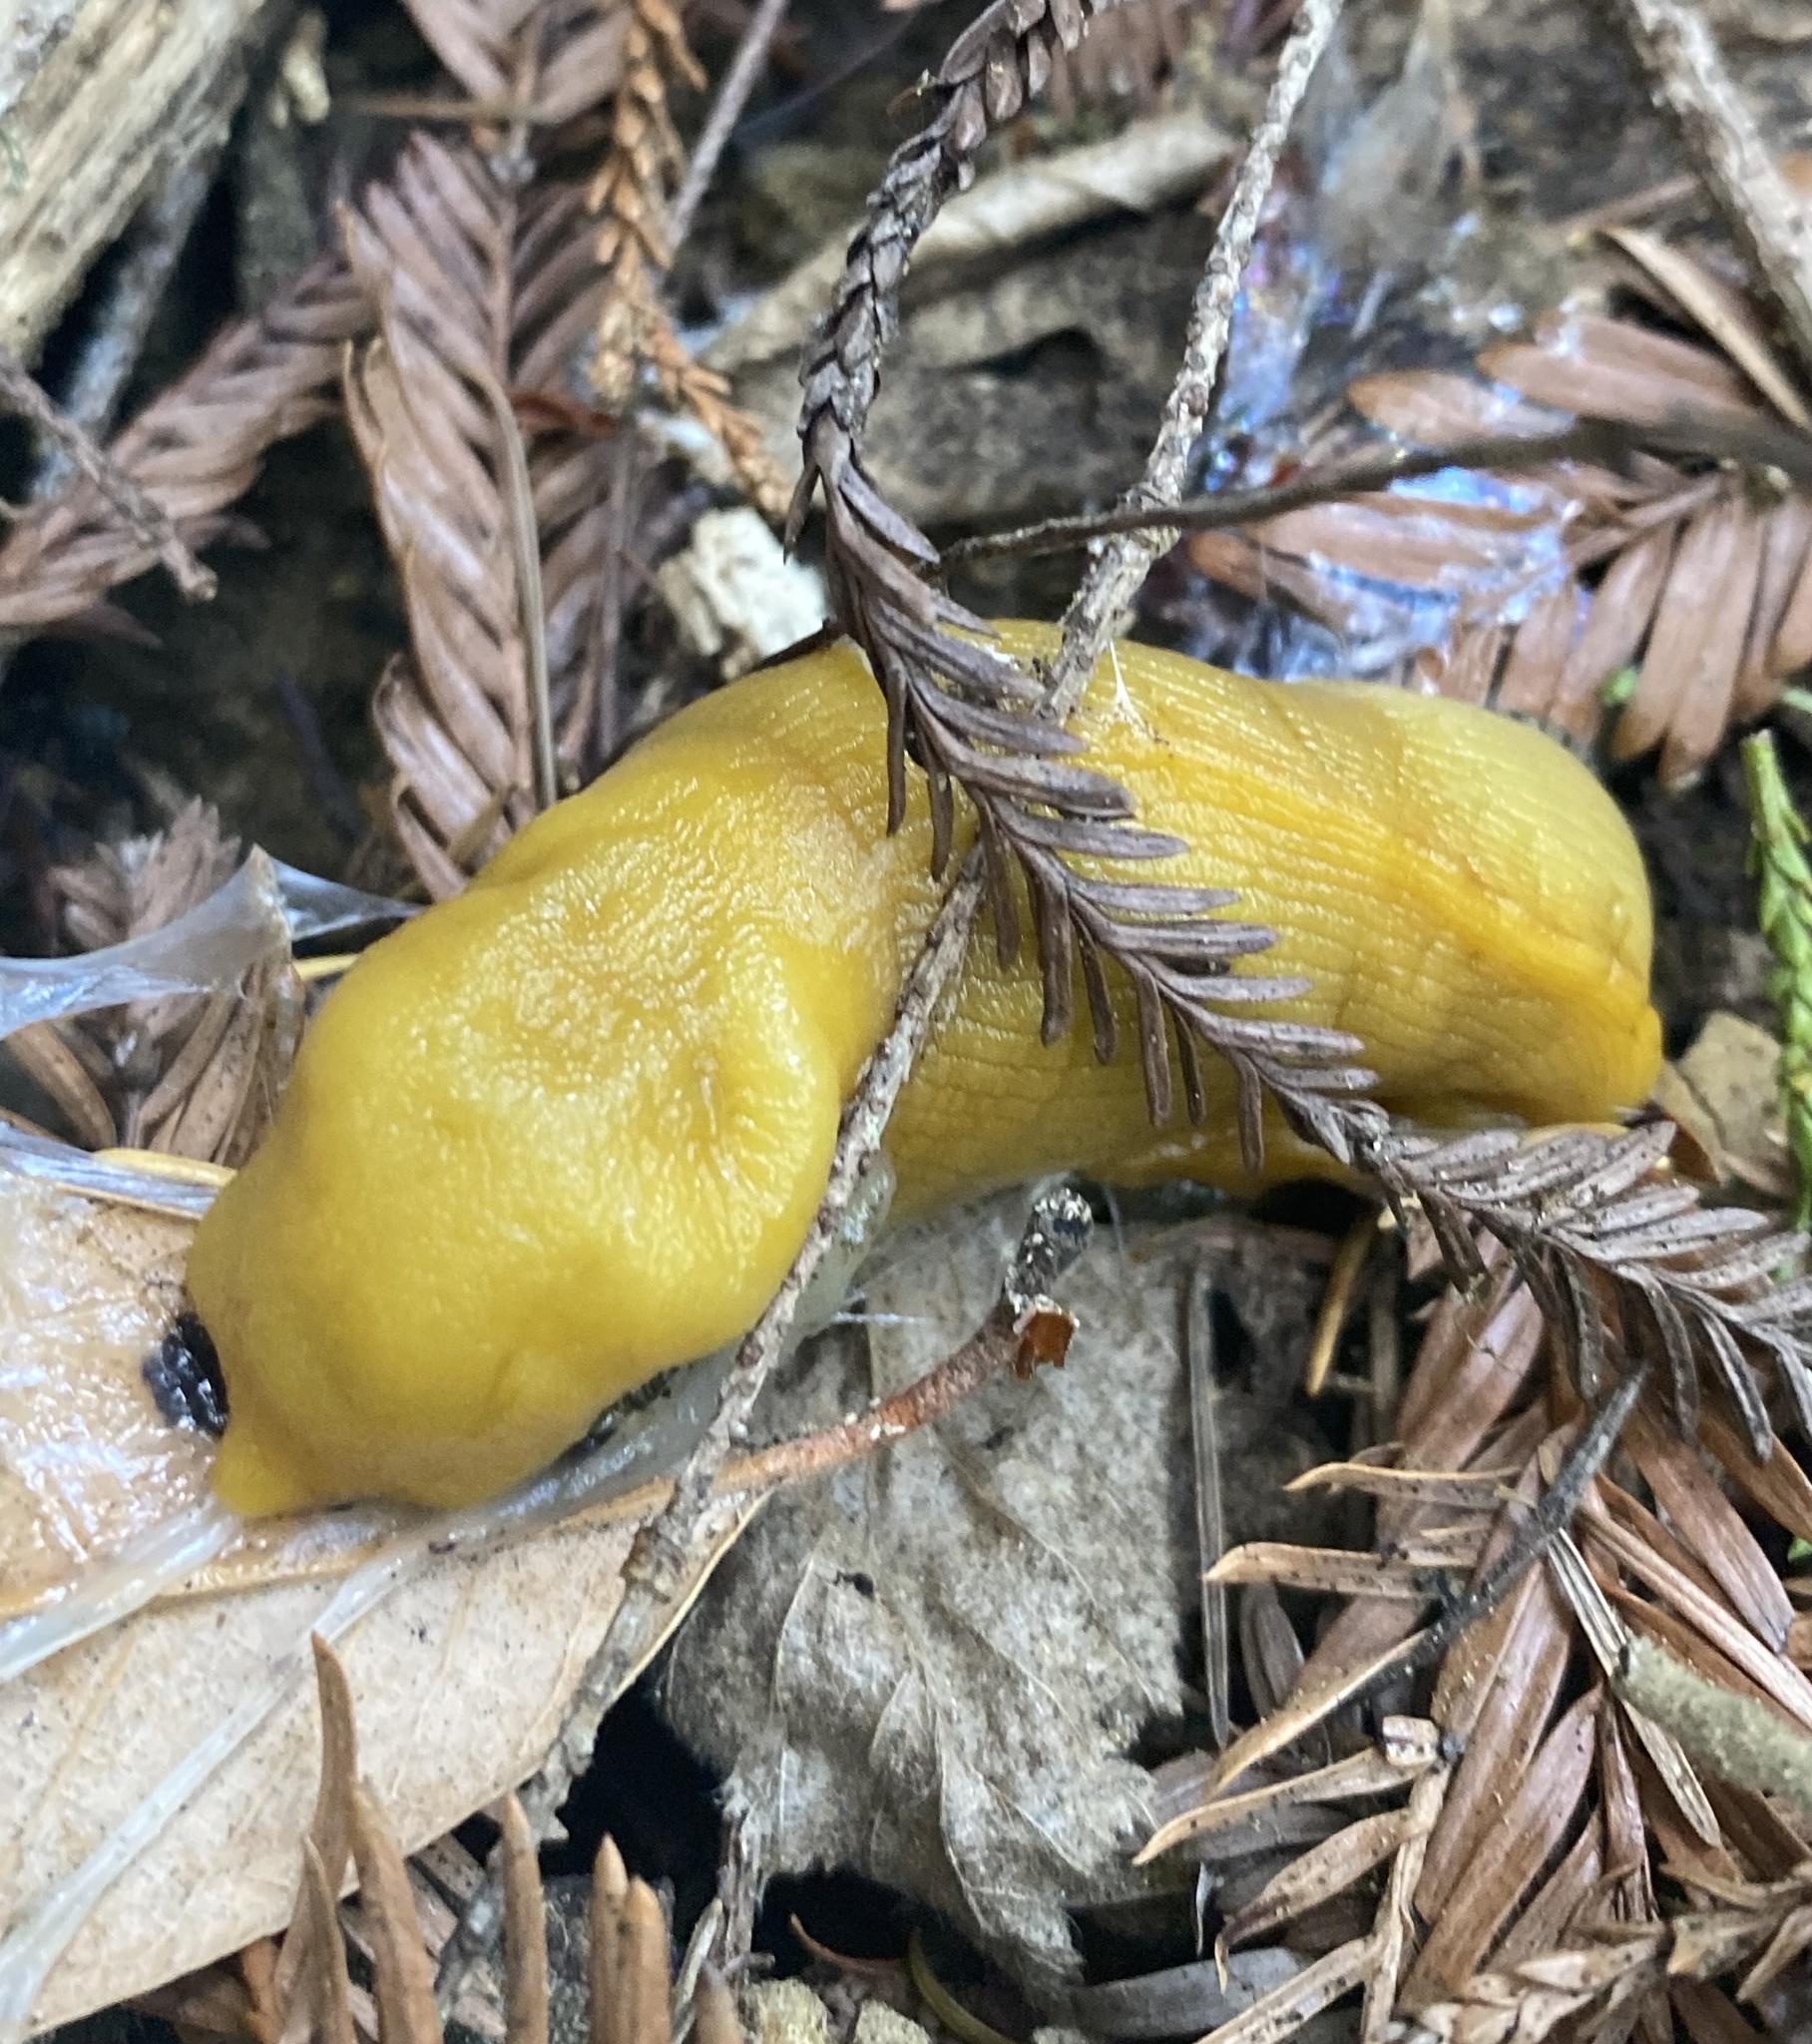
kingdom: Animalia
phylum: Mollusca
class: Gastropoda
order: Stylommatophora
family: Ariolimacidae
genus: Ariolimax
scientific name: Ariolimax dolichophallus
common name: Slender banana slug
